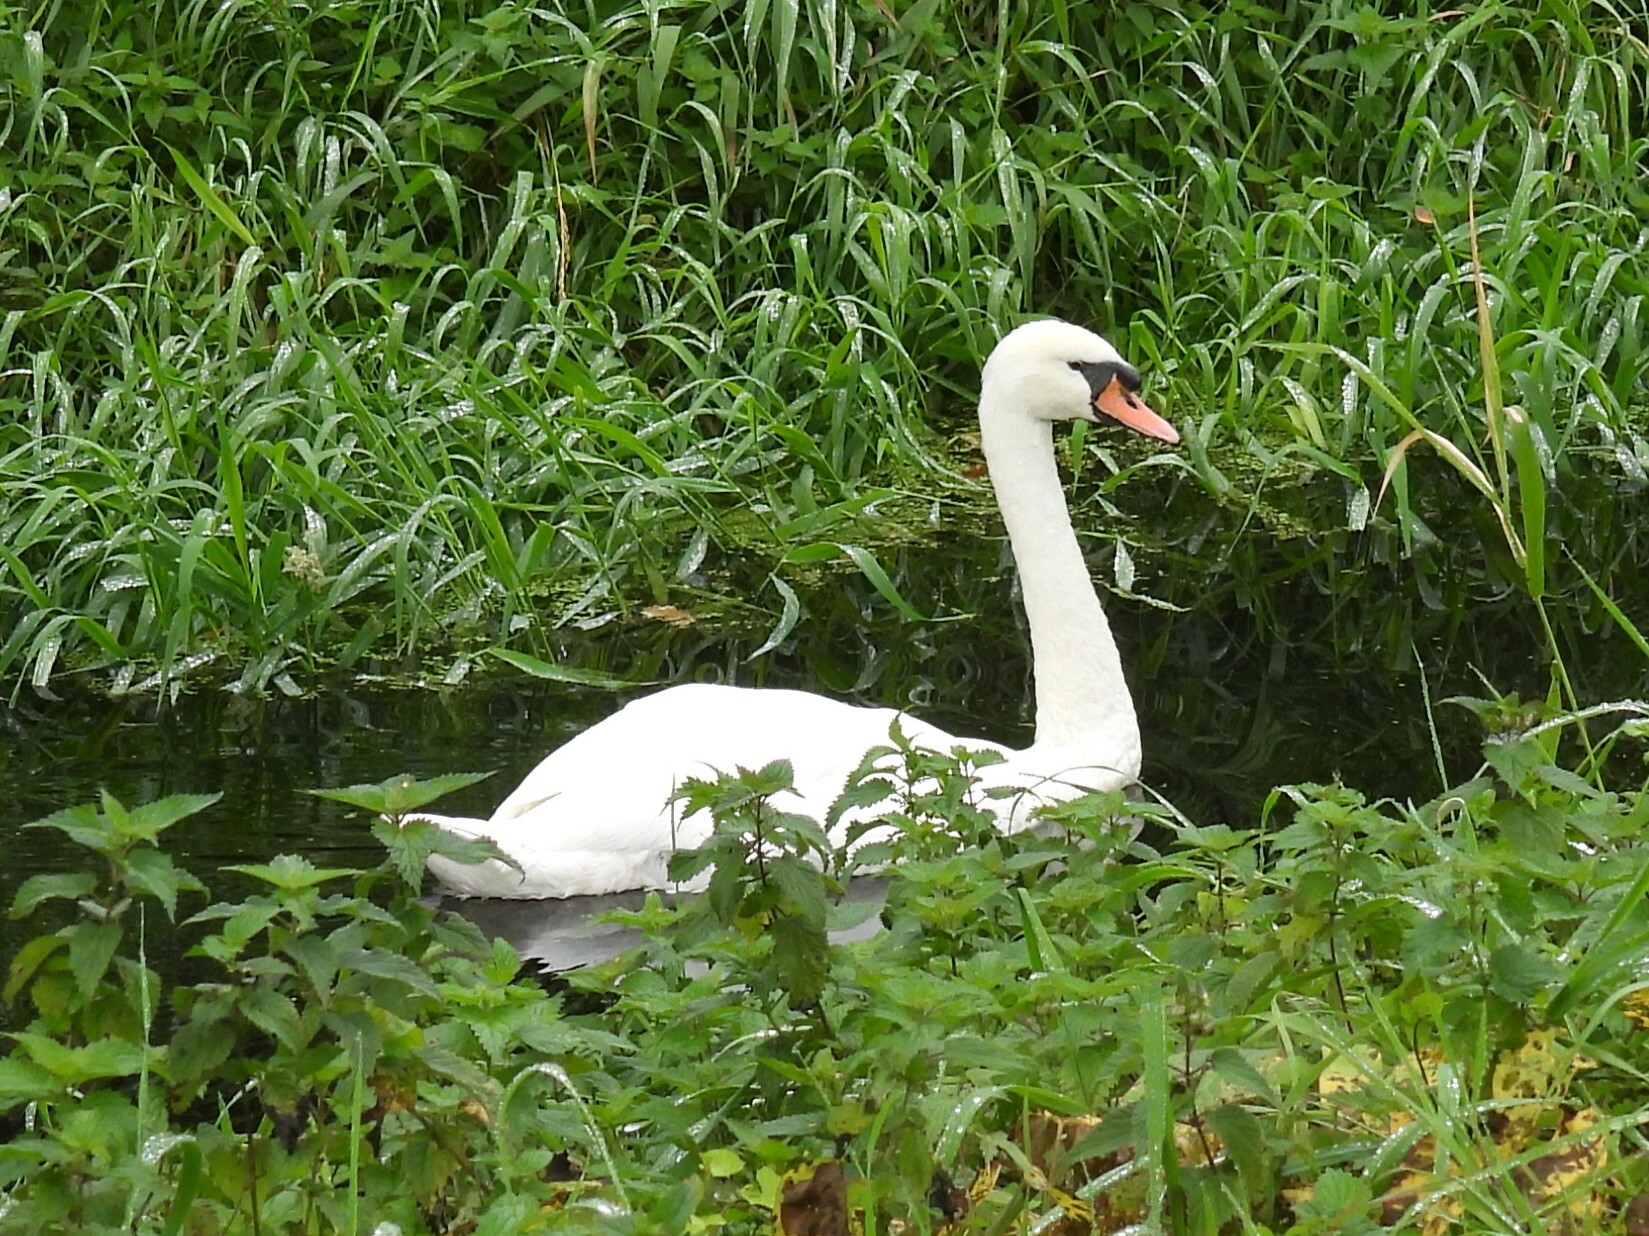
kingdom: Animalia
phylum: Chordata
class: Aves
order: Anseriformes
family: Anatidae
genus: Cygnus
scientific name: Cygnus olor
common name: Mute swan
